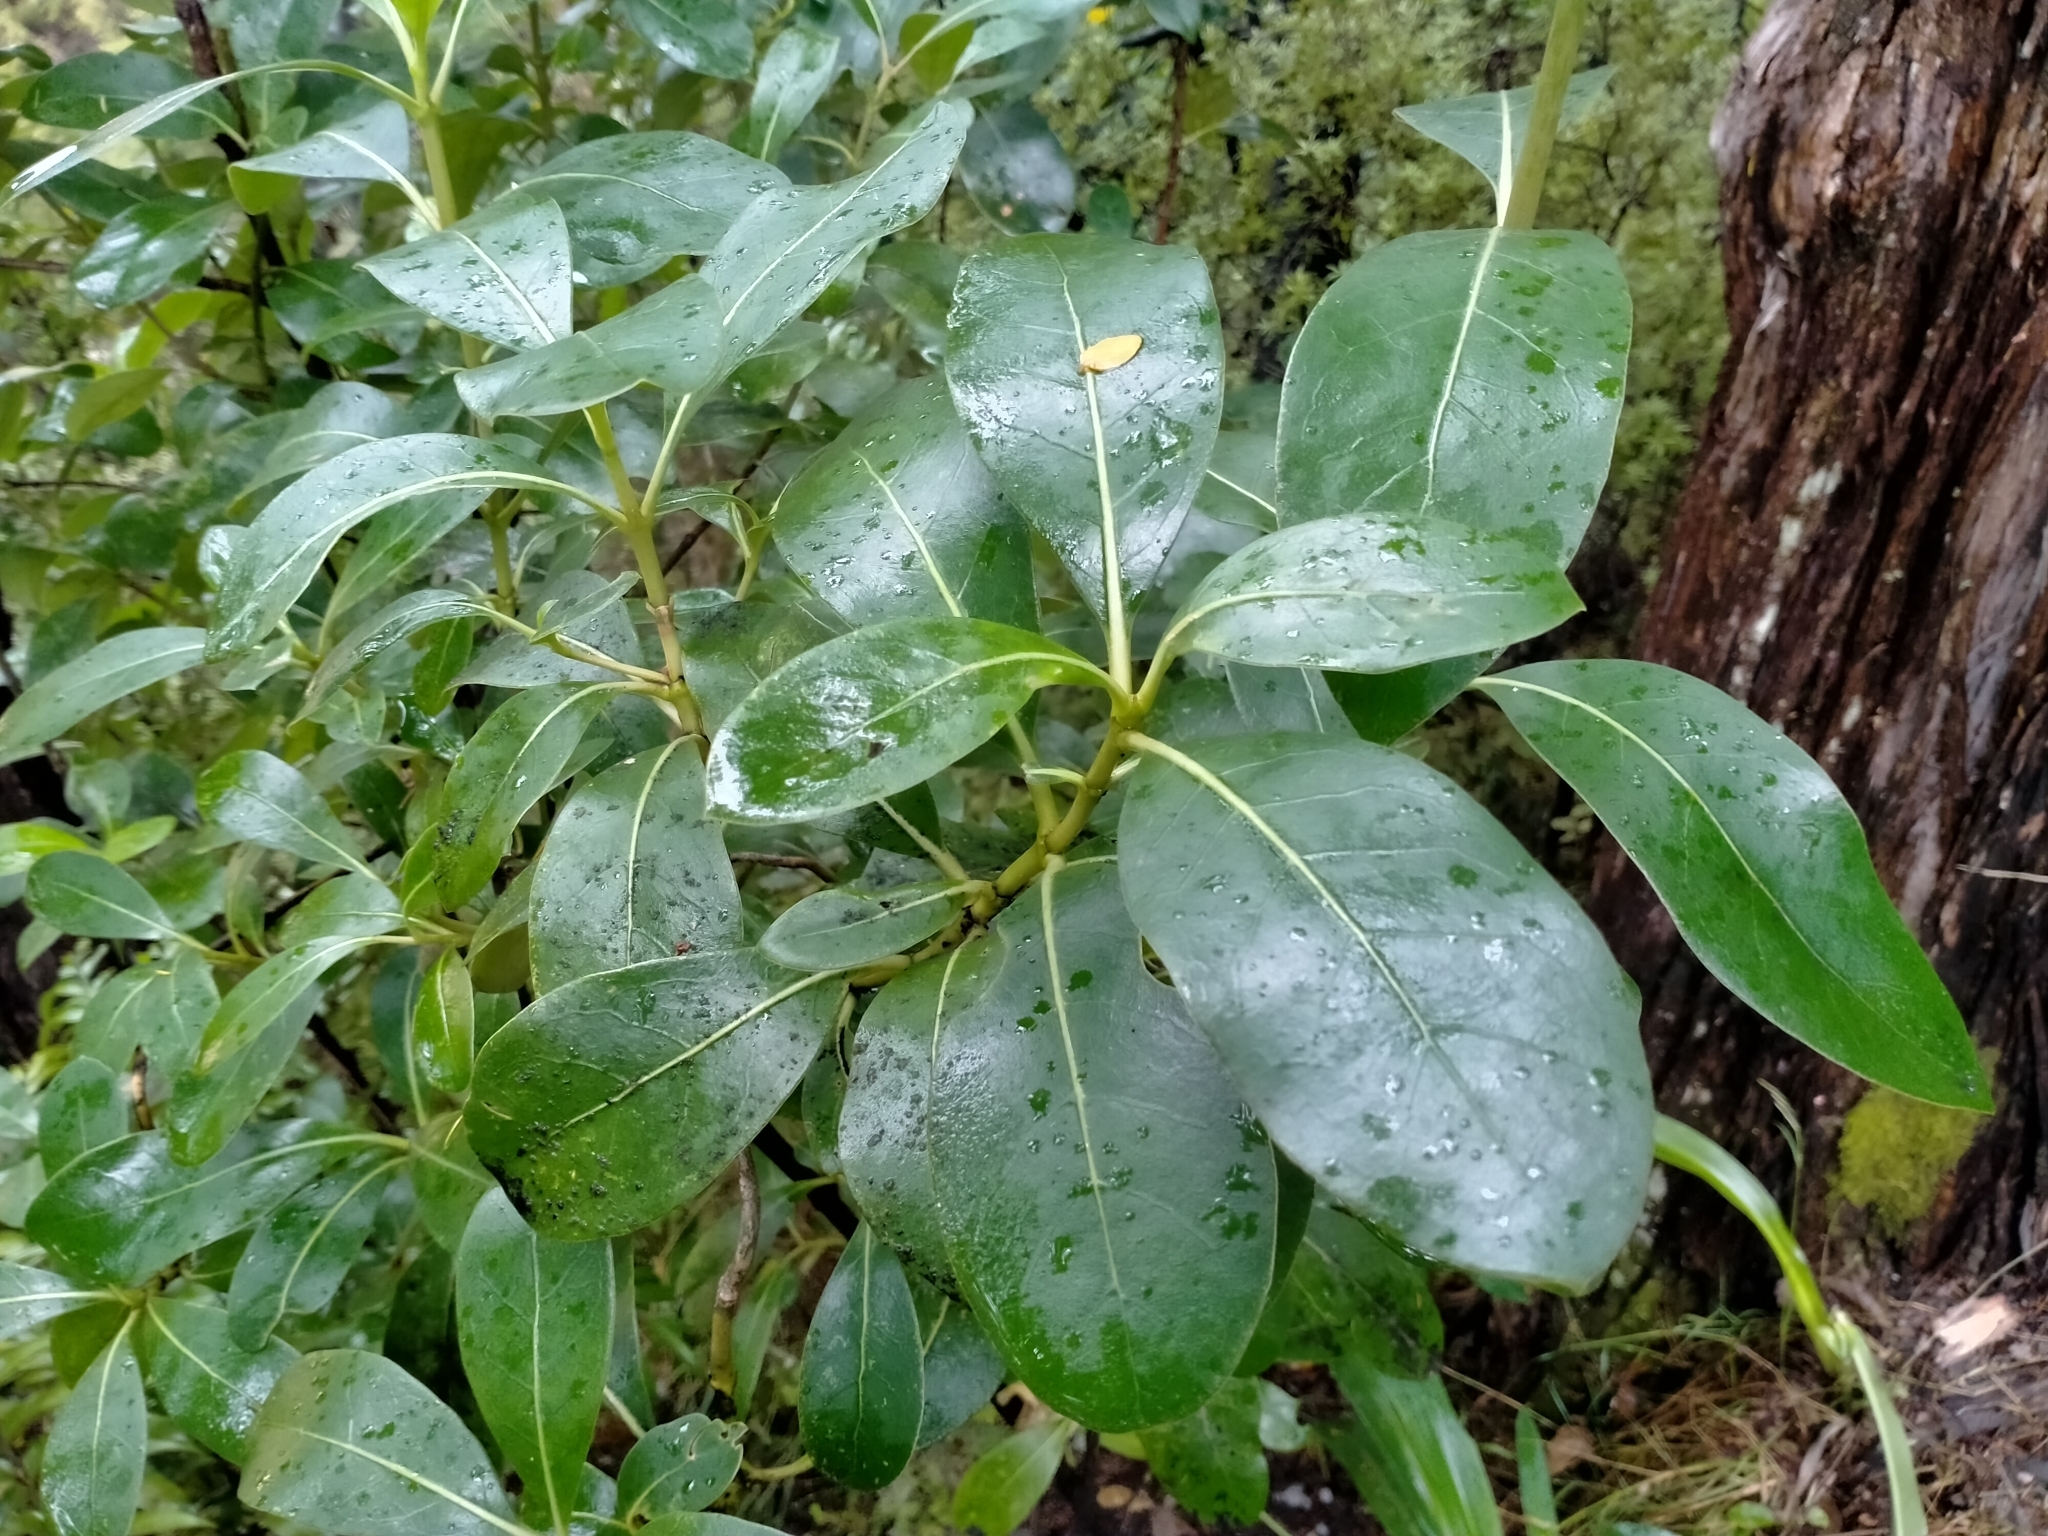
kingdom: Plantae
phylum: Tracheophyta
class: Magnoliopsida
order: Gentianales
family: Rubiaceae
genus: Coprosma
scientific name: Coprosma lucida
